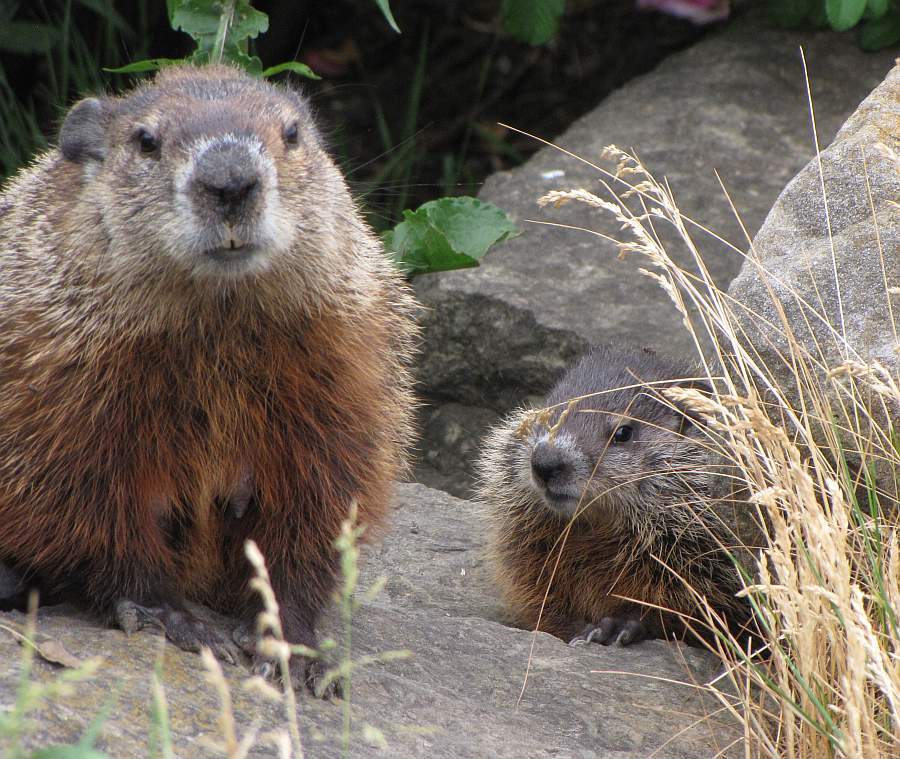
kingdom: Animalia
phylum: Chordata
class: Mammalia
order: Rodentia
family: Sciuridae
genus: Marmota
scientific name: Marmota monax
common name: Groundhog
